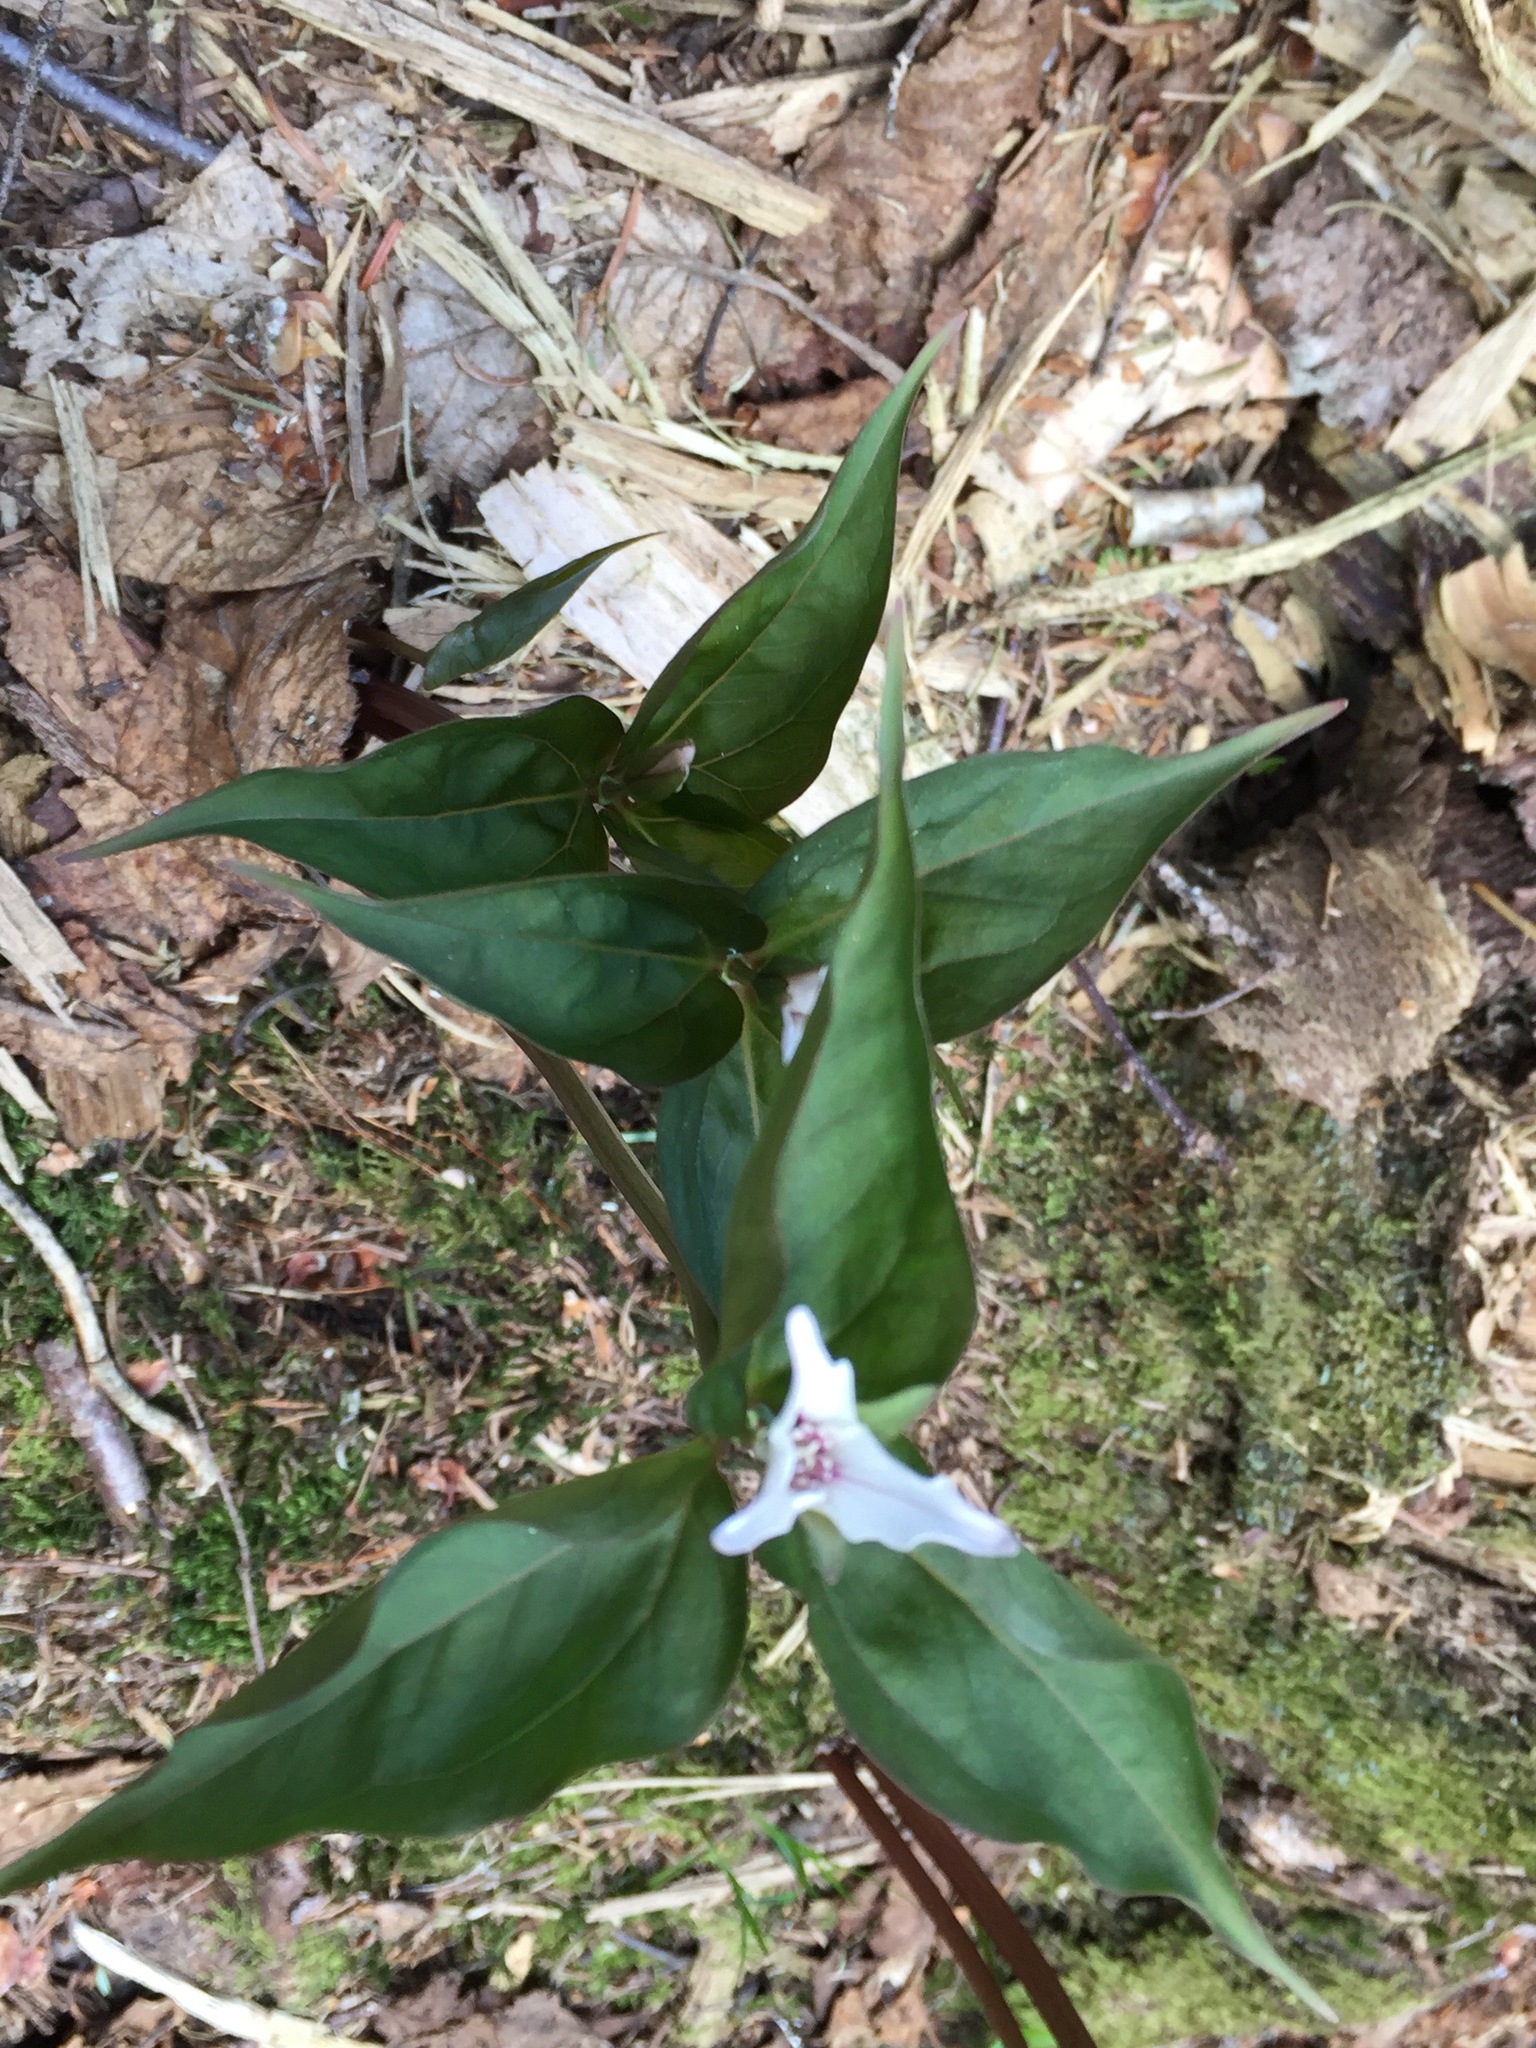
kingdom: Plantae
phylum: Tracheophyta
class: Liliopsida
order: Liliales
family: Melanthiaceae
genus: Trillium
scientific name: Trillium undulatum
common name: Paint trillium
